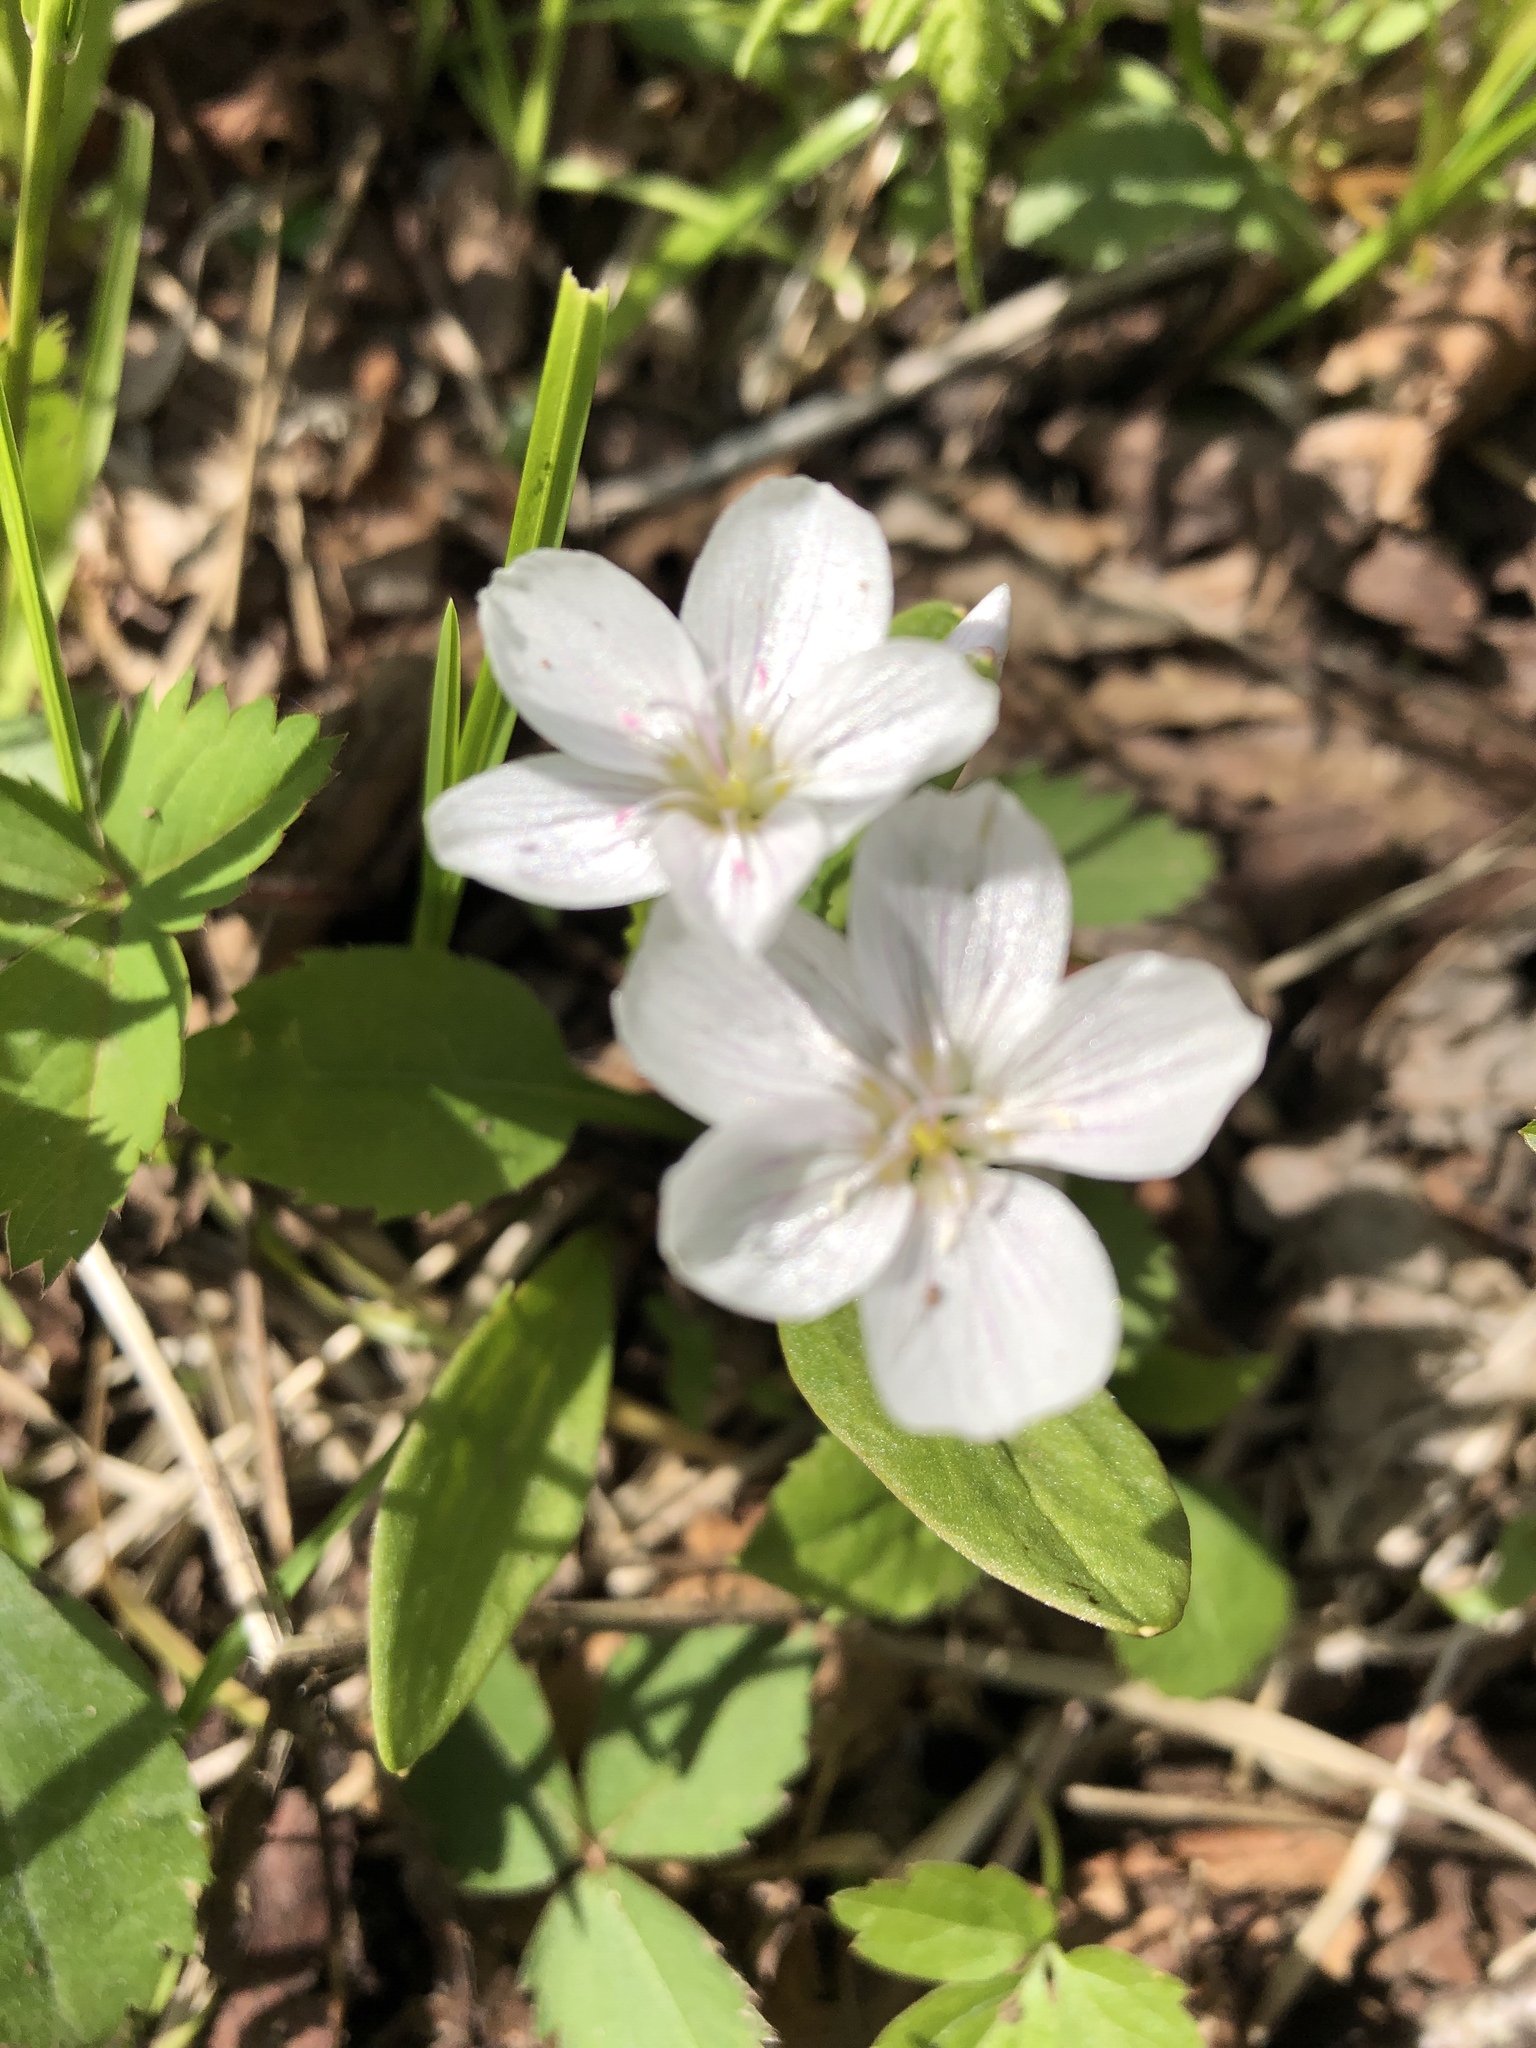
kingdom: Plantae
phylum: Tracheophyta
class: Magnoliopsida
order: Caryophyllales
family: Montiaceae
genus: Claytonia
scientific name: Claytonia caroliniana
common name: Carolina spring beauty
